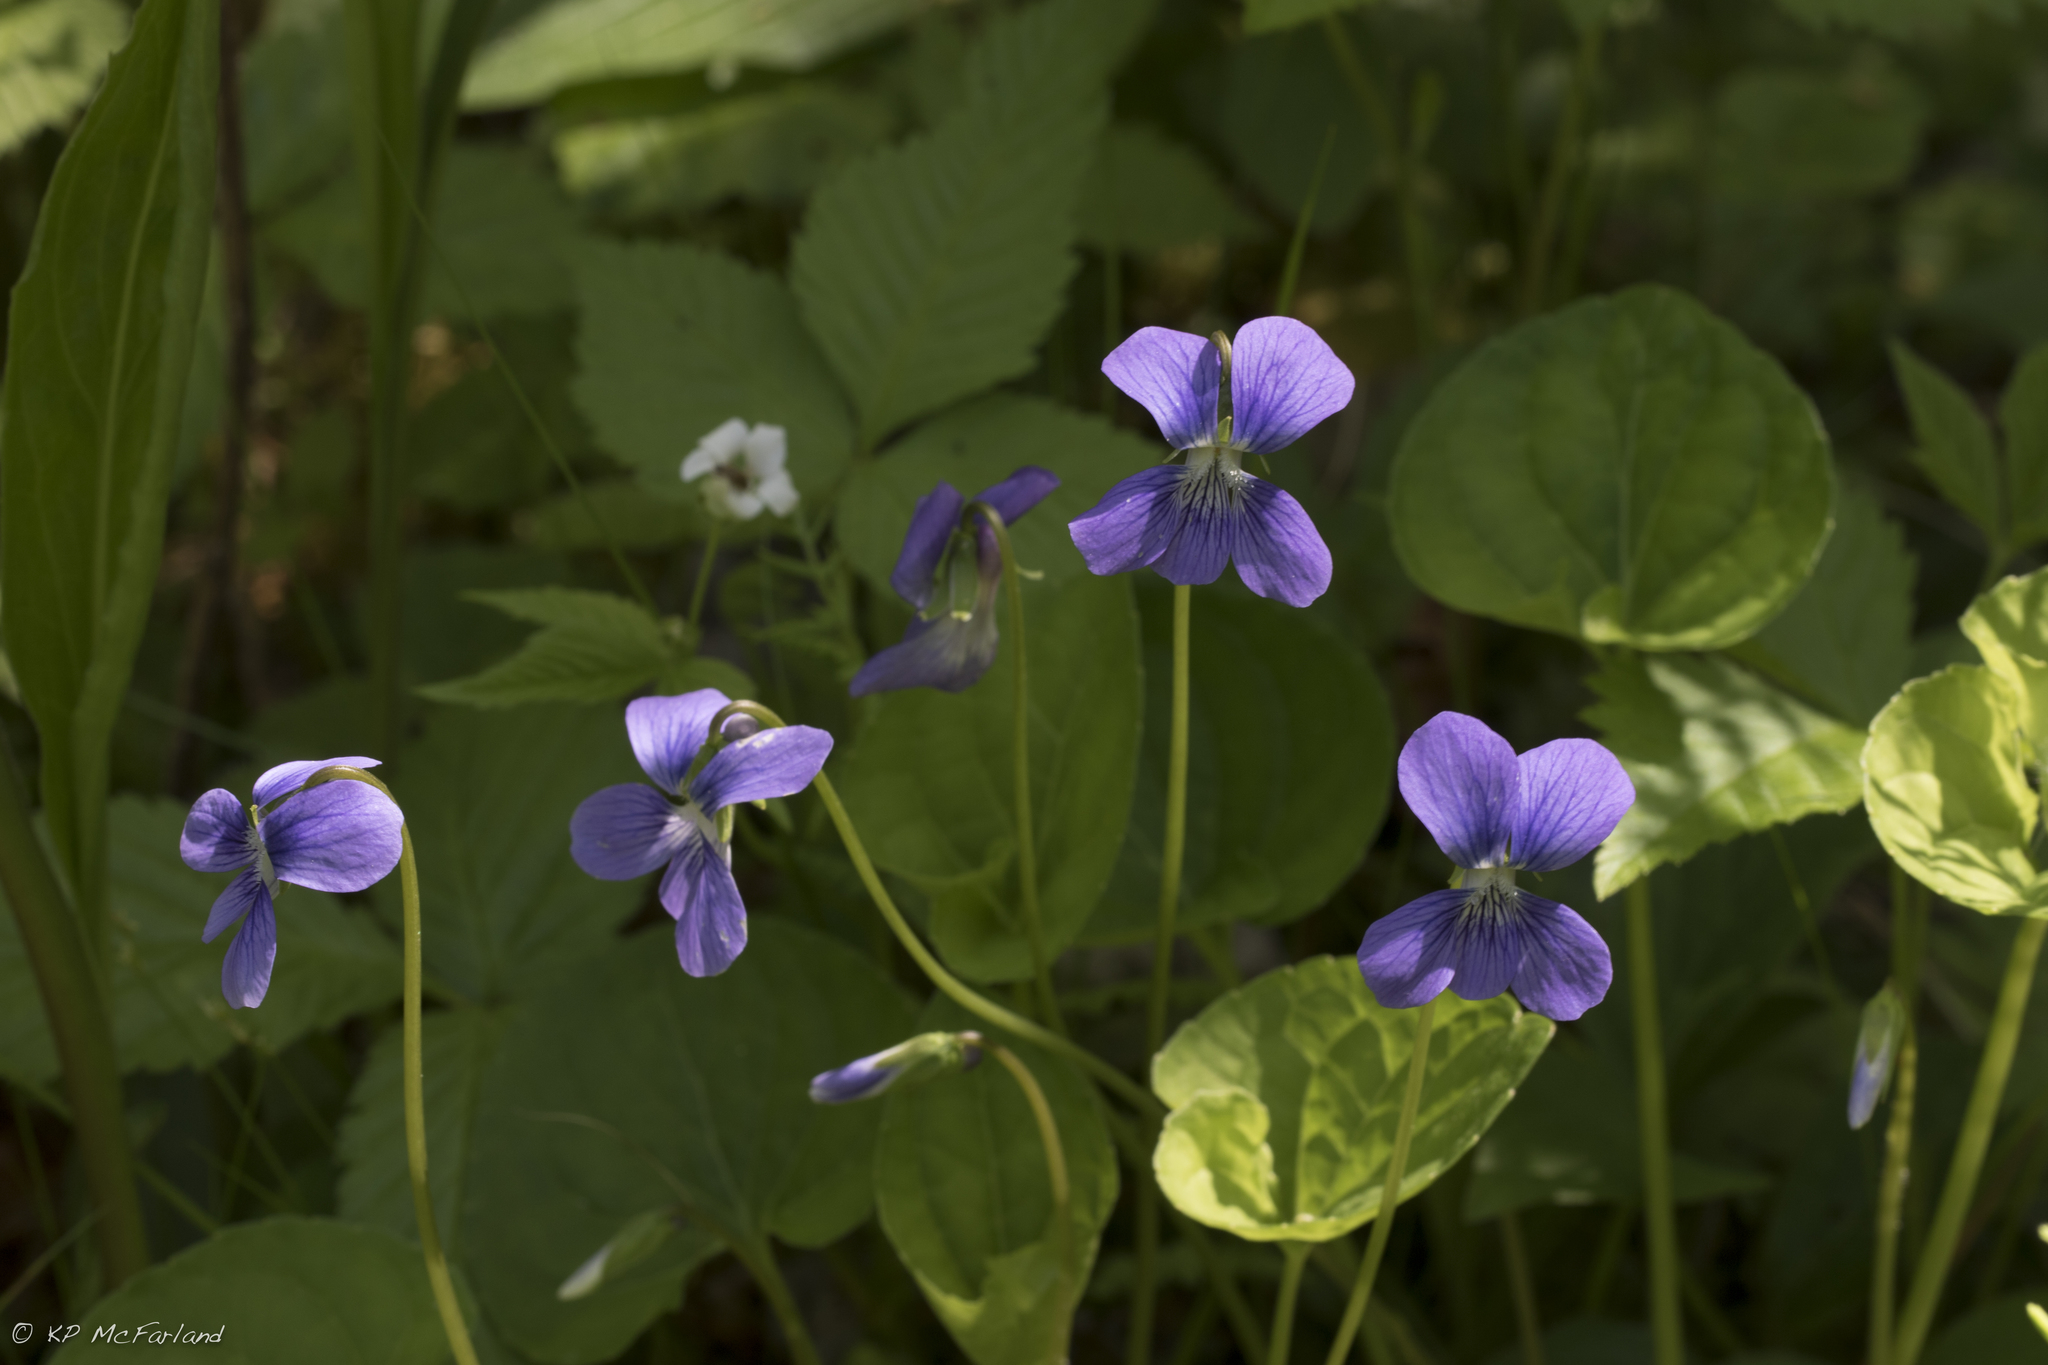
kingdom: Plantae
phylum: Tracheophyta
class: Magnoliopsida
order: Malpighiales
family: Violaceae
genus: Viola
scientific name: Viola
